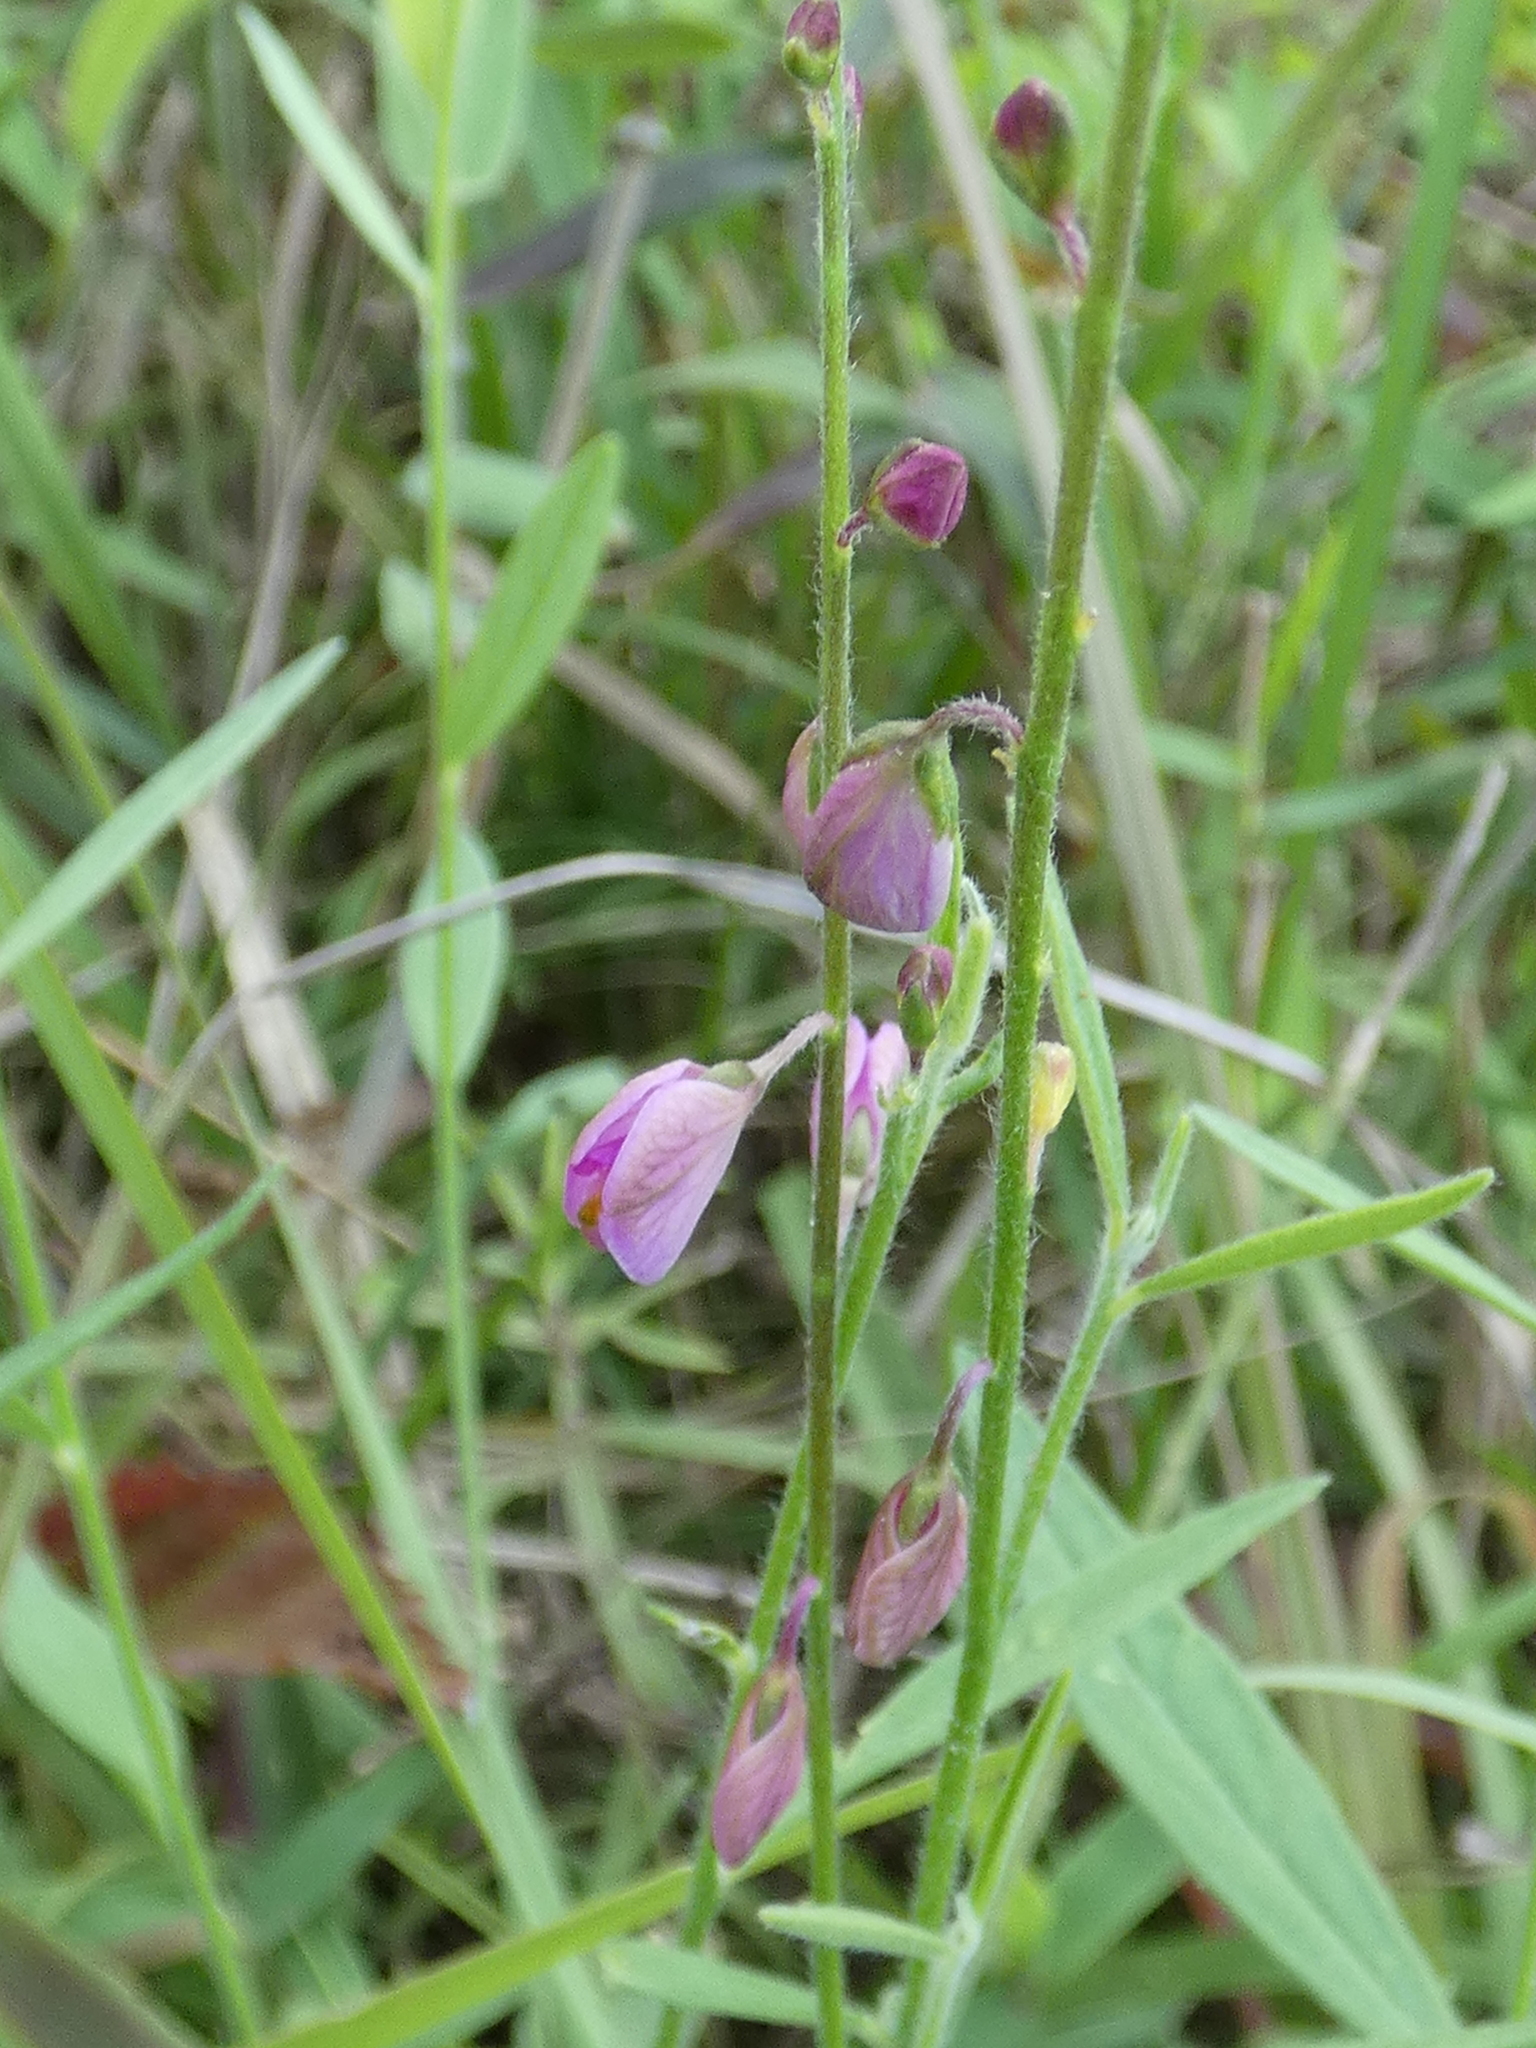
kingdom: Plantae
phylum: Tracheophyta
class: Magnoliopsida
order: Fabales
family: Polygalaceae
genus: Asemeia
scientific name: Asemeia grandiflora
